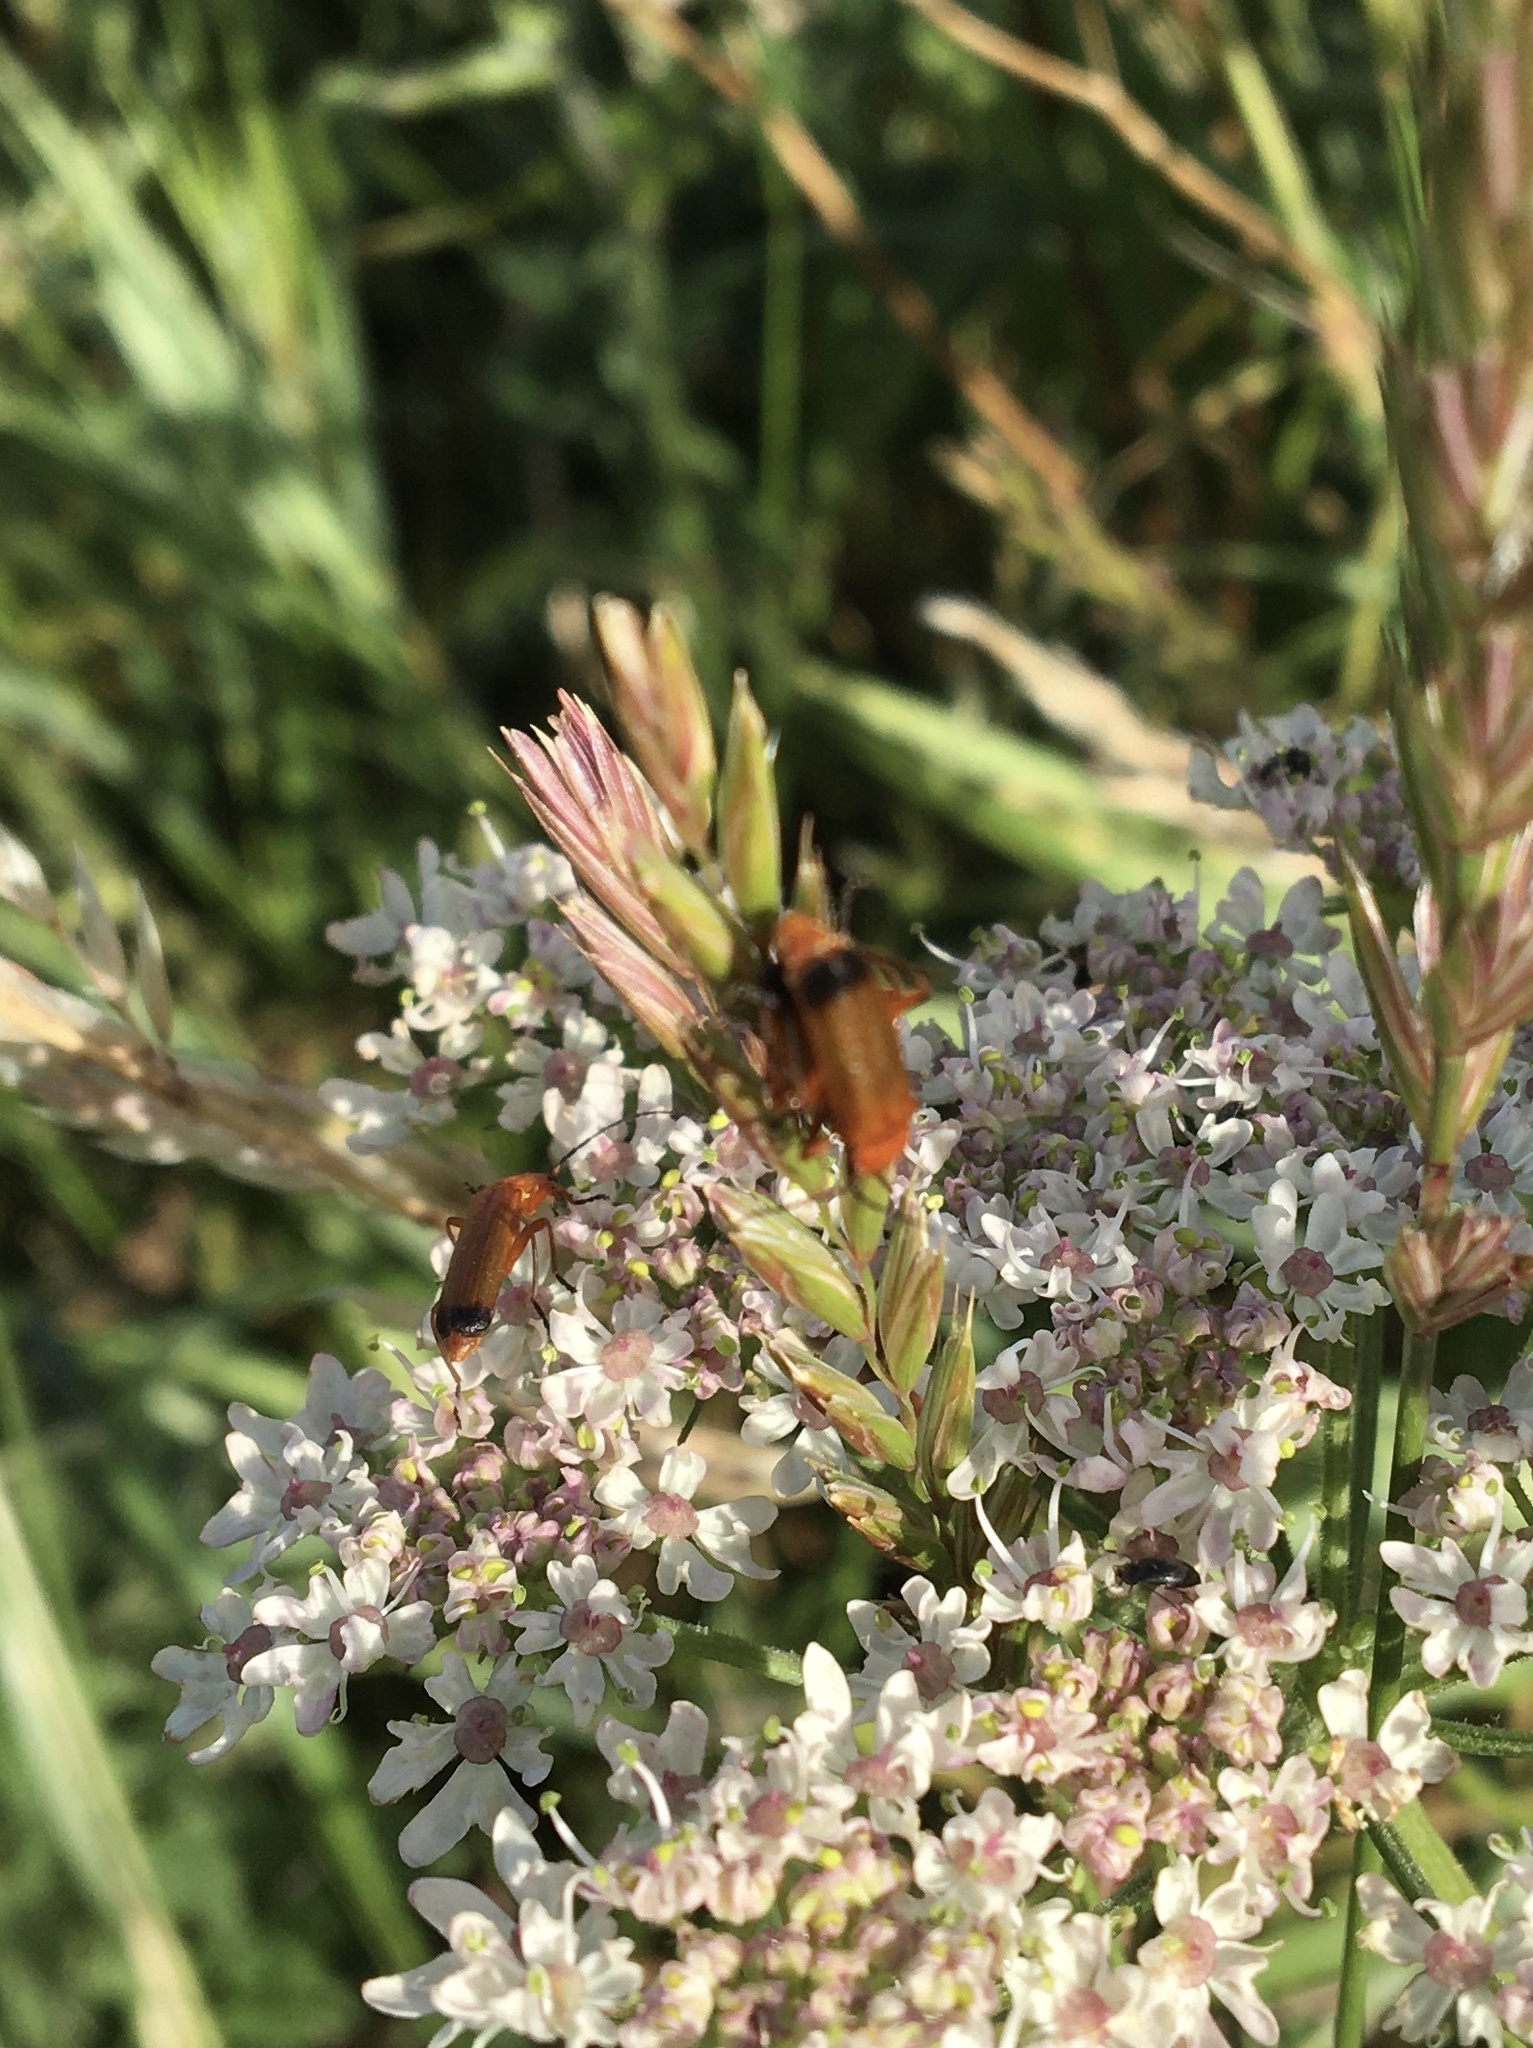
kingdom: Animalia
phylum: Arthropoda
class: Insecta
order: Coleoptera
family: Cantharidae
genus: Rhagonycha
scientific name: Rhagonycha fulva
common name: Common red soldier beetle
